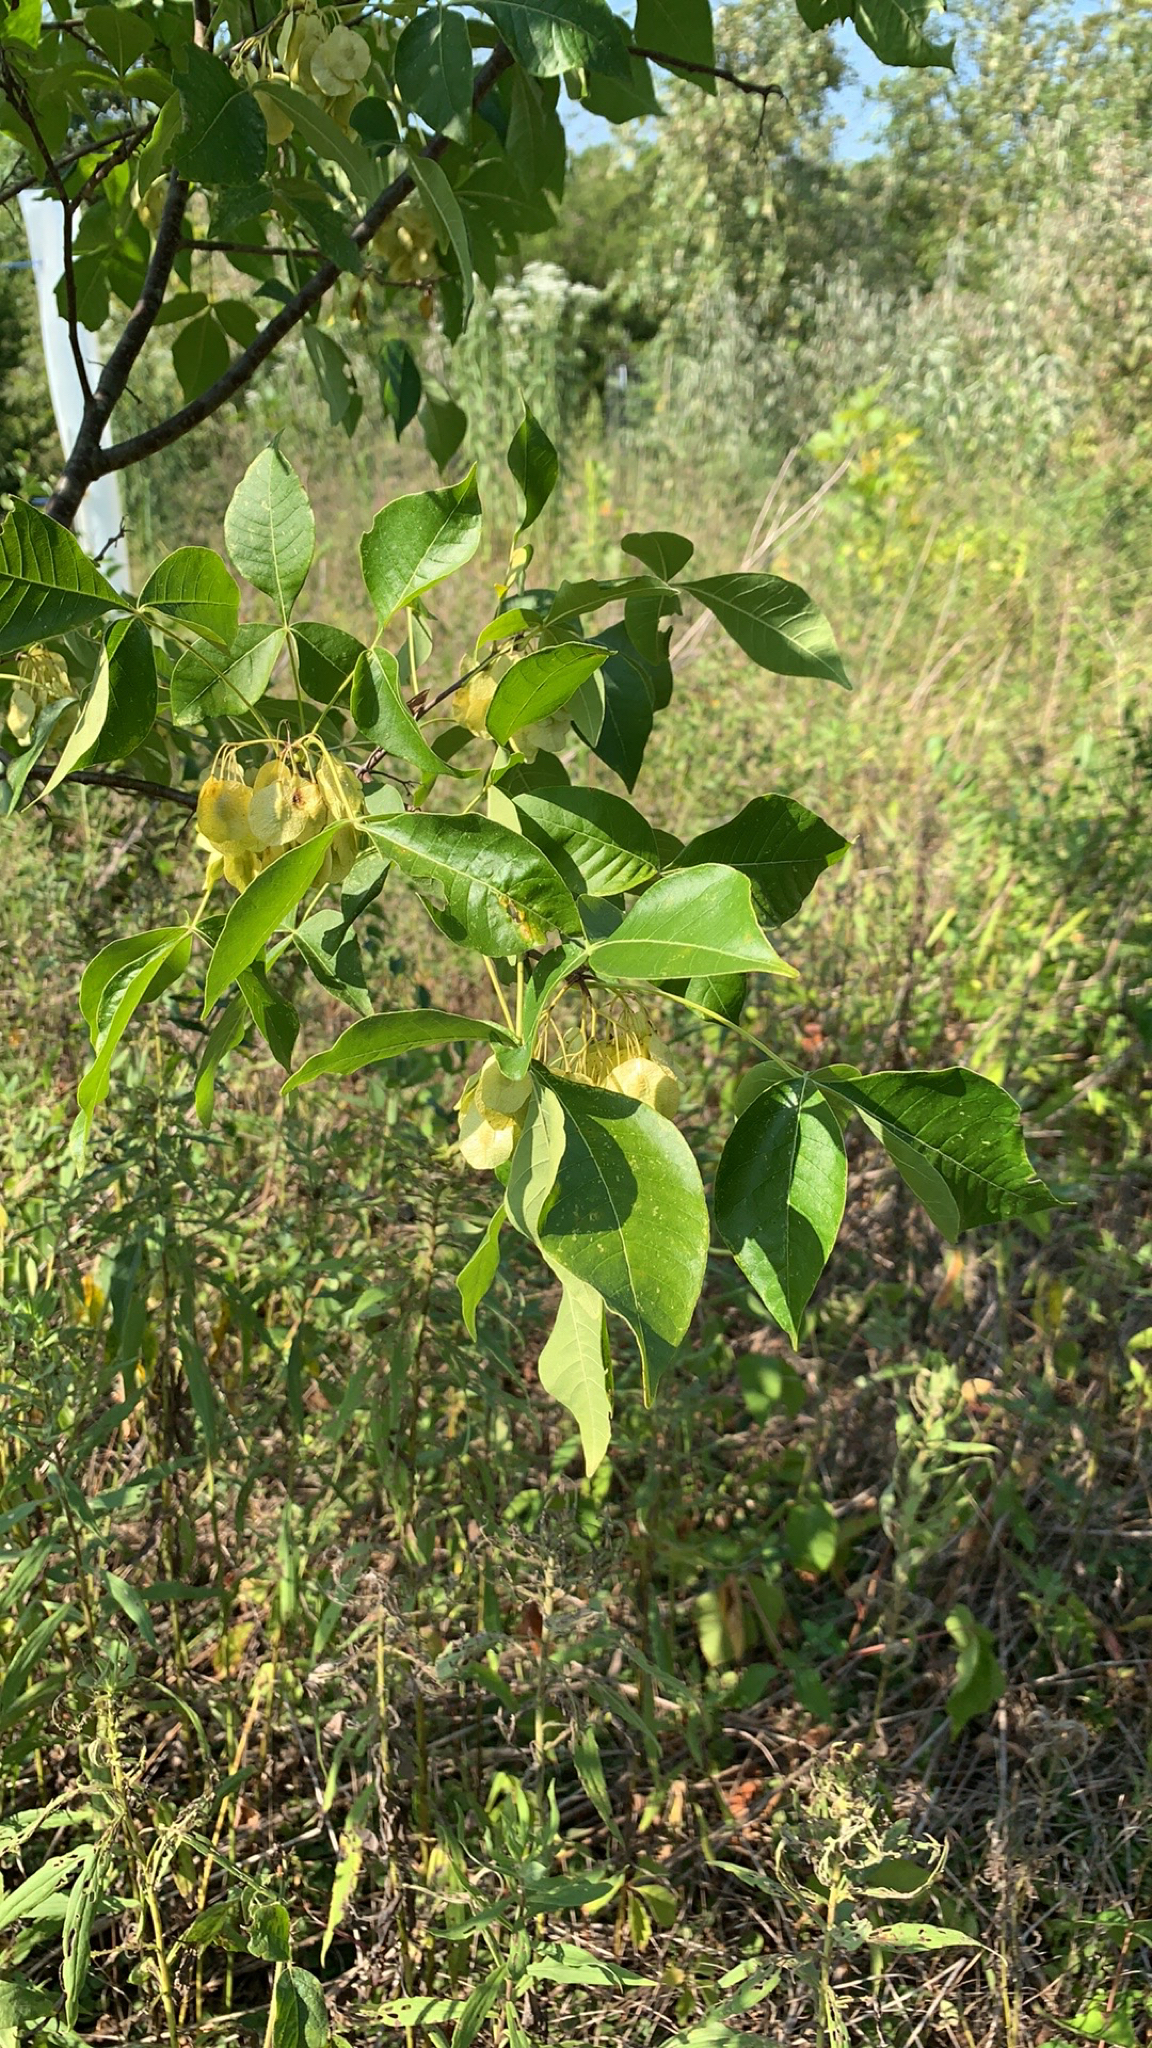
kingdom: Plantae
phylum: Tracheophyta
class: Magnoliopsida
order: Sapindales
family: Rutaceae
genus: Ptelea
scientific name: Ptelea trifoliata
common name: Common hop-tree
